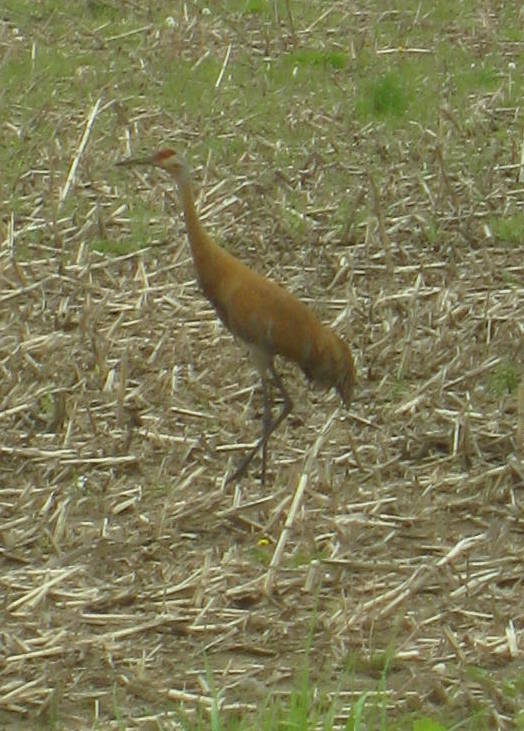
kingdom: Animalia
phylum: Chordata
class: Aves
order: Gruiformes
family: Gruidae
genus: Grus
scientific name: Grus canadensis
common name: Sandhill crane
